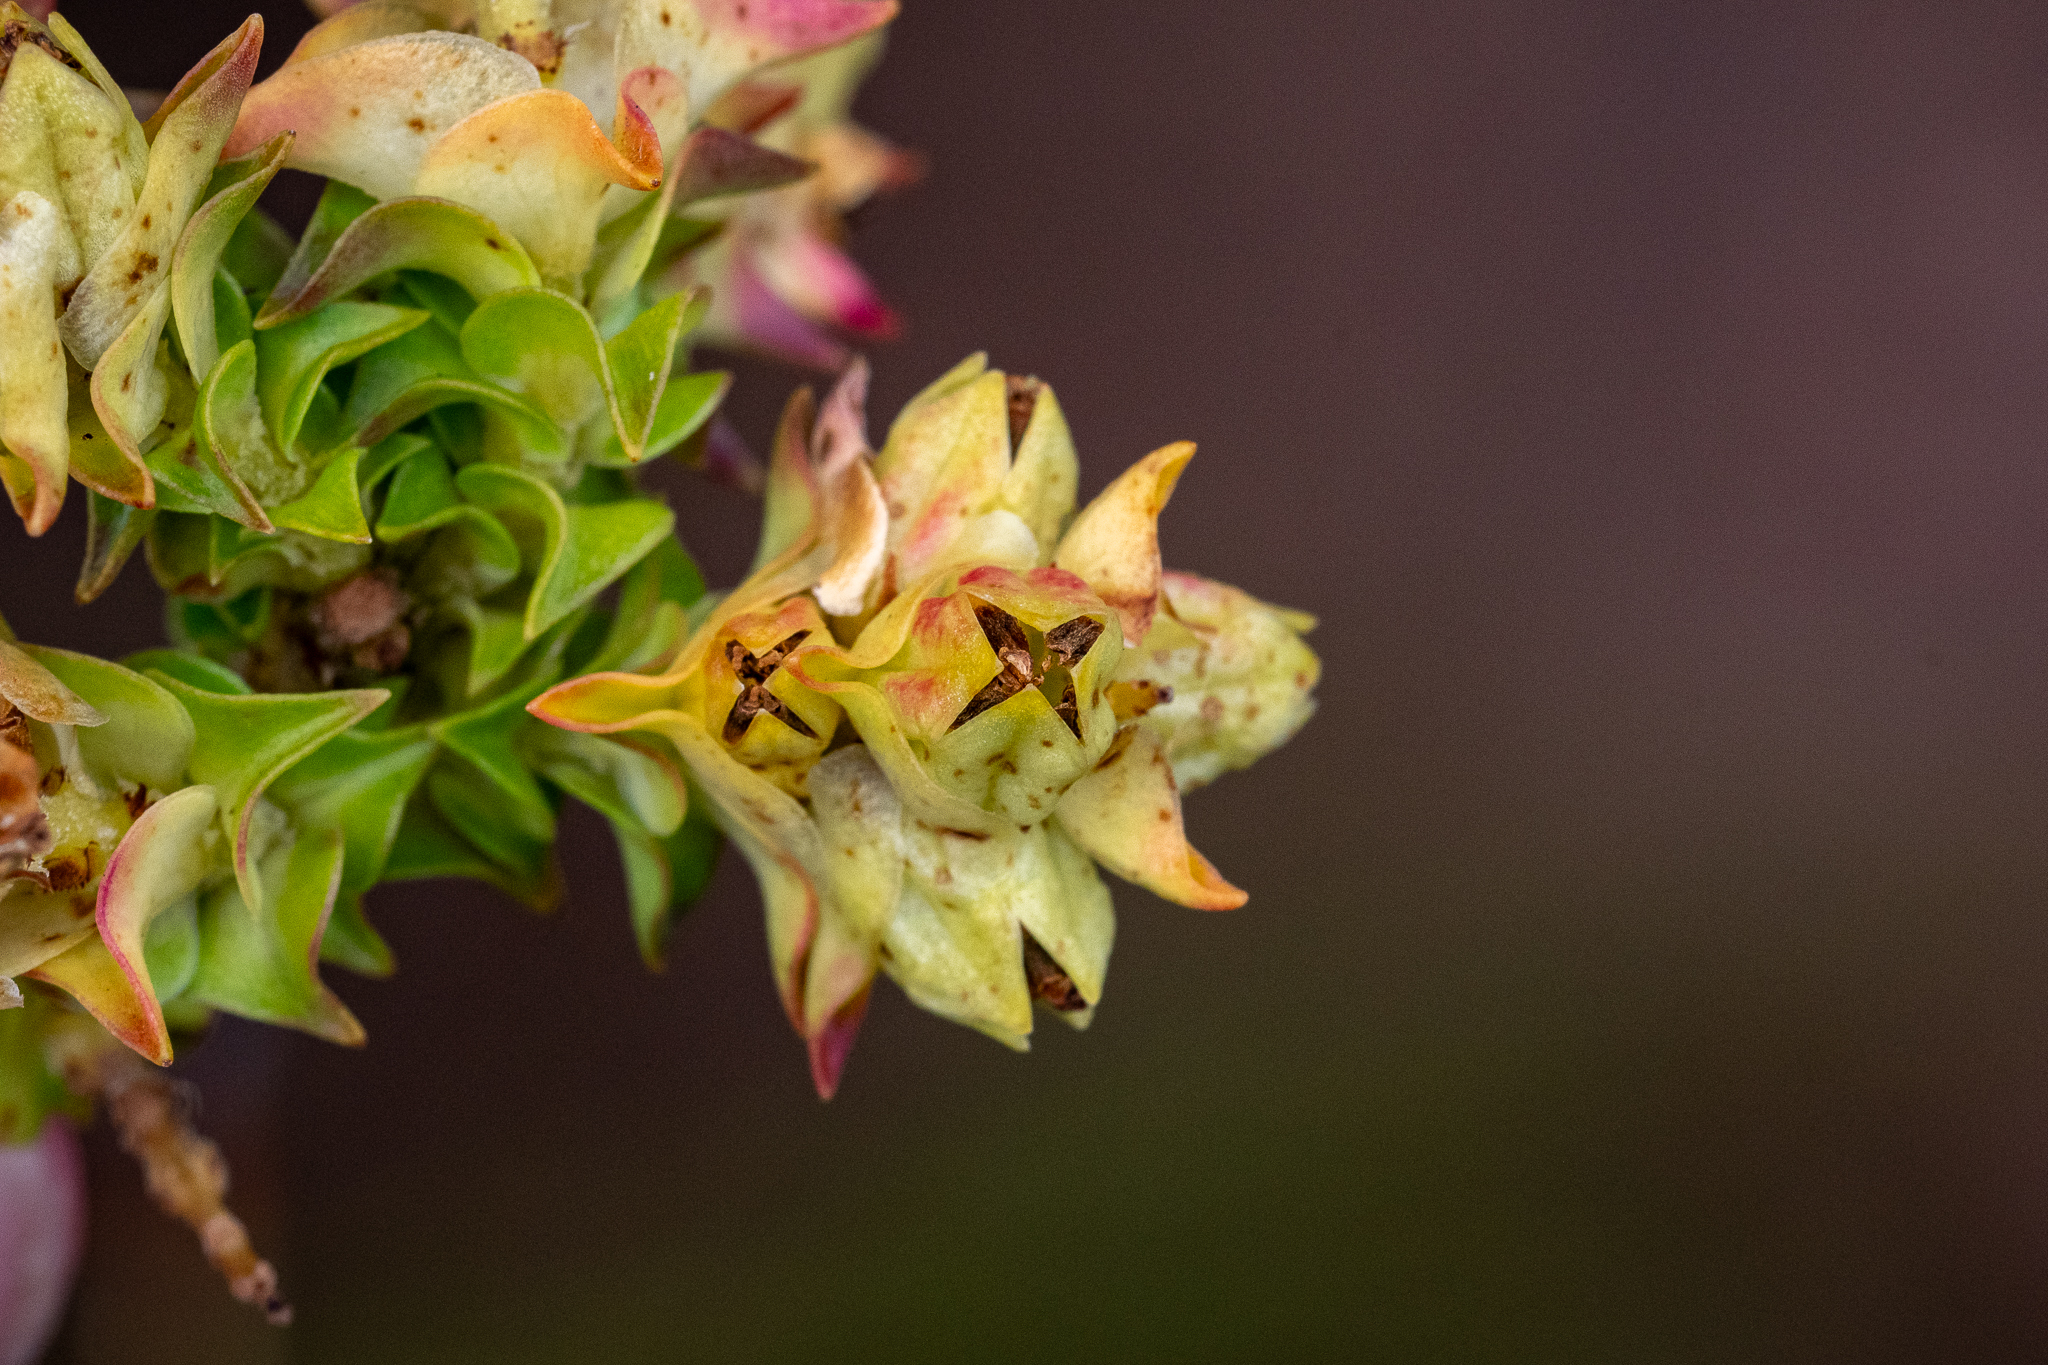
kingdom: Plantae
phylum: Tracheophyta
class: Magnoliopsida
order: Myrtales
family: Penaeaceae
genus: Penaea
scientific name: Penaea mucronata
